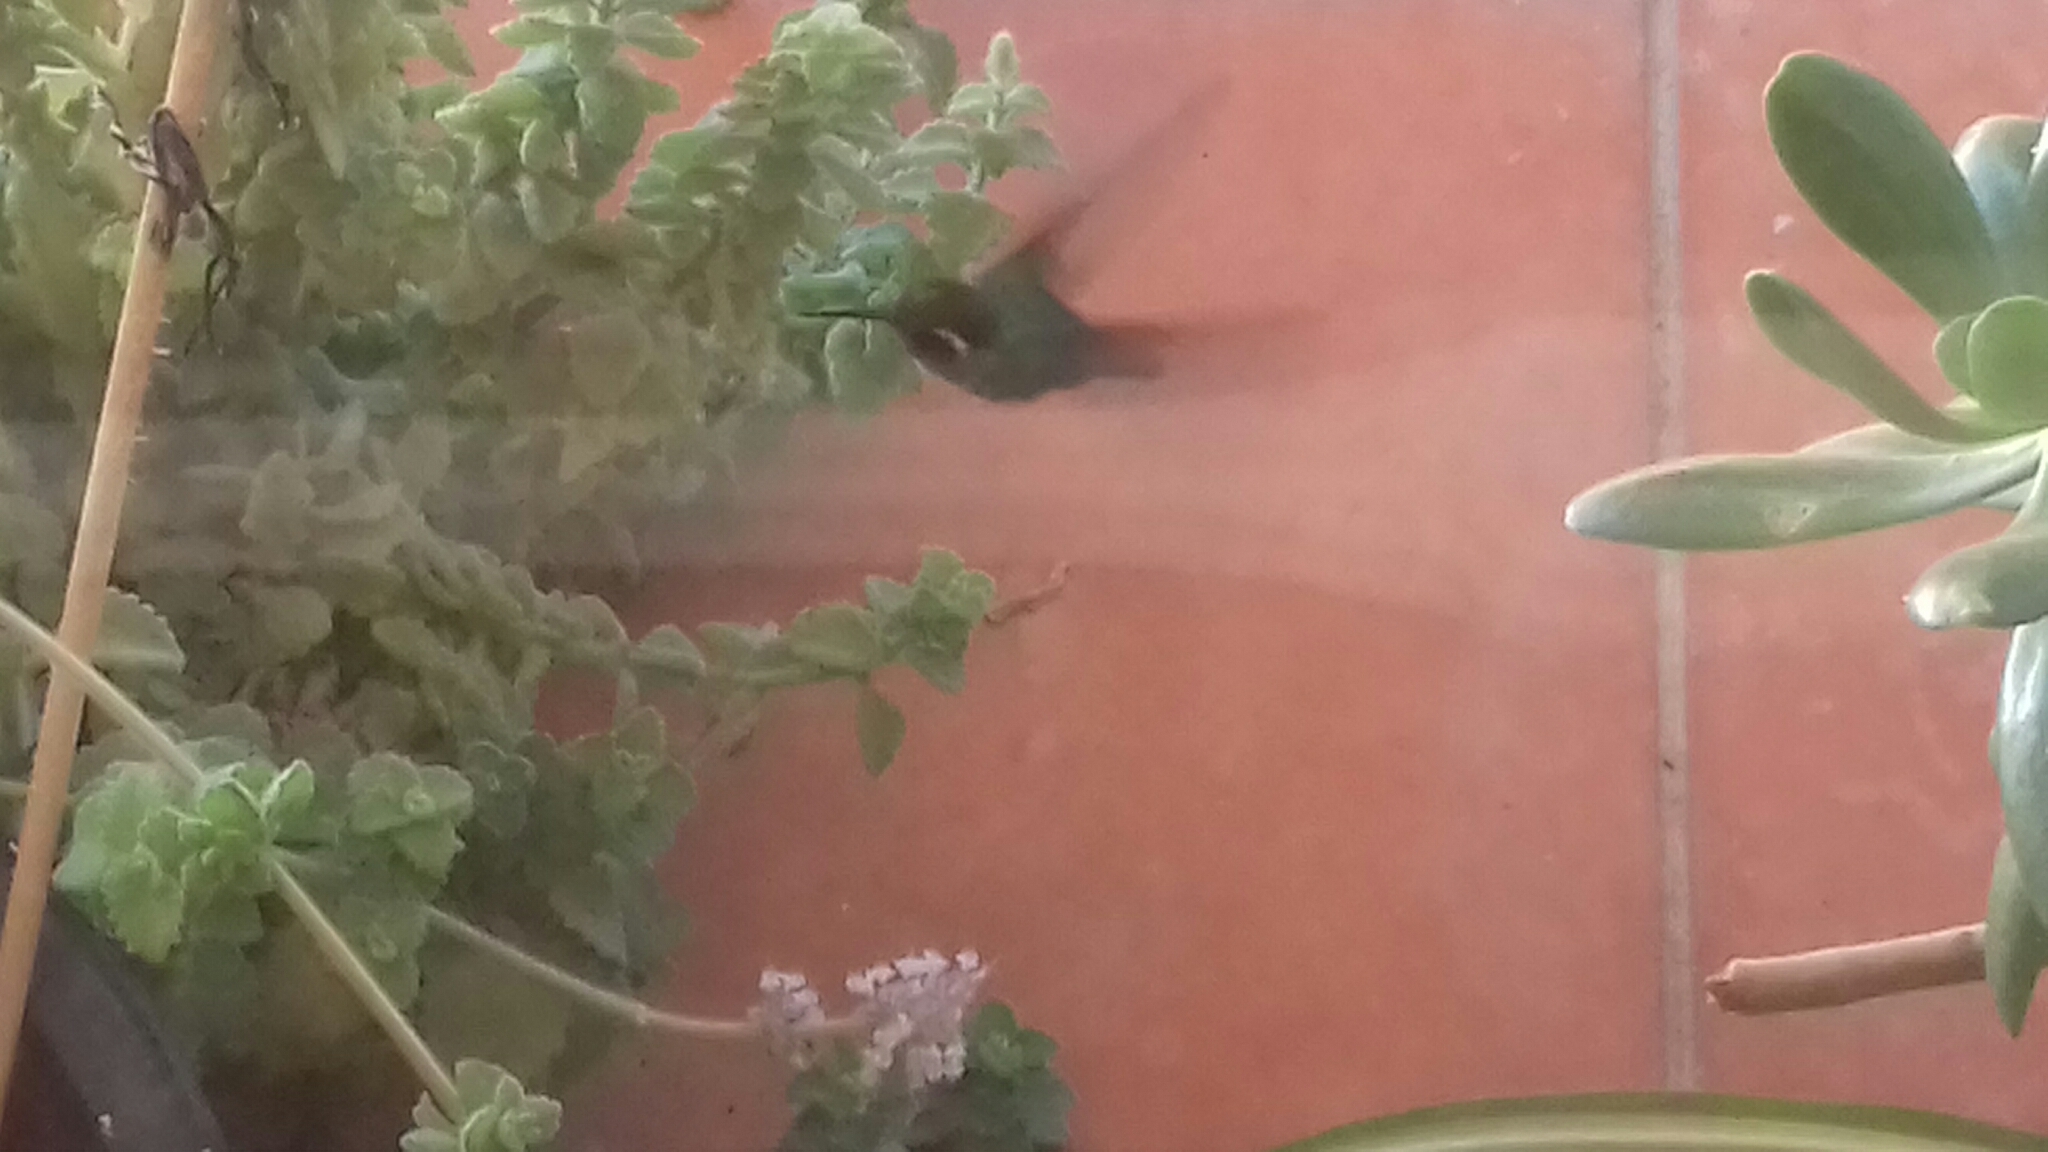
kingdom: Animalia
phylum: Chordata
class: Aves
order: Apodiformes
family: Trochilidae
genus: Basilinna
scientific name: Basilinna leucotis
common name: White-eared hummingbird
